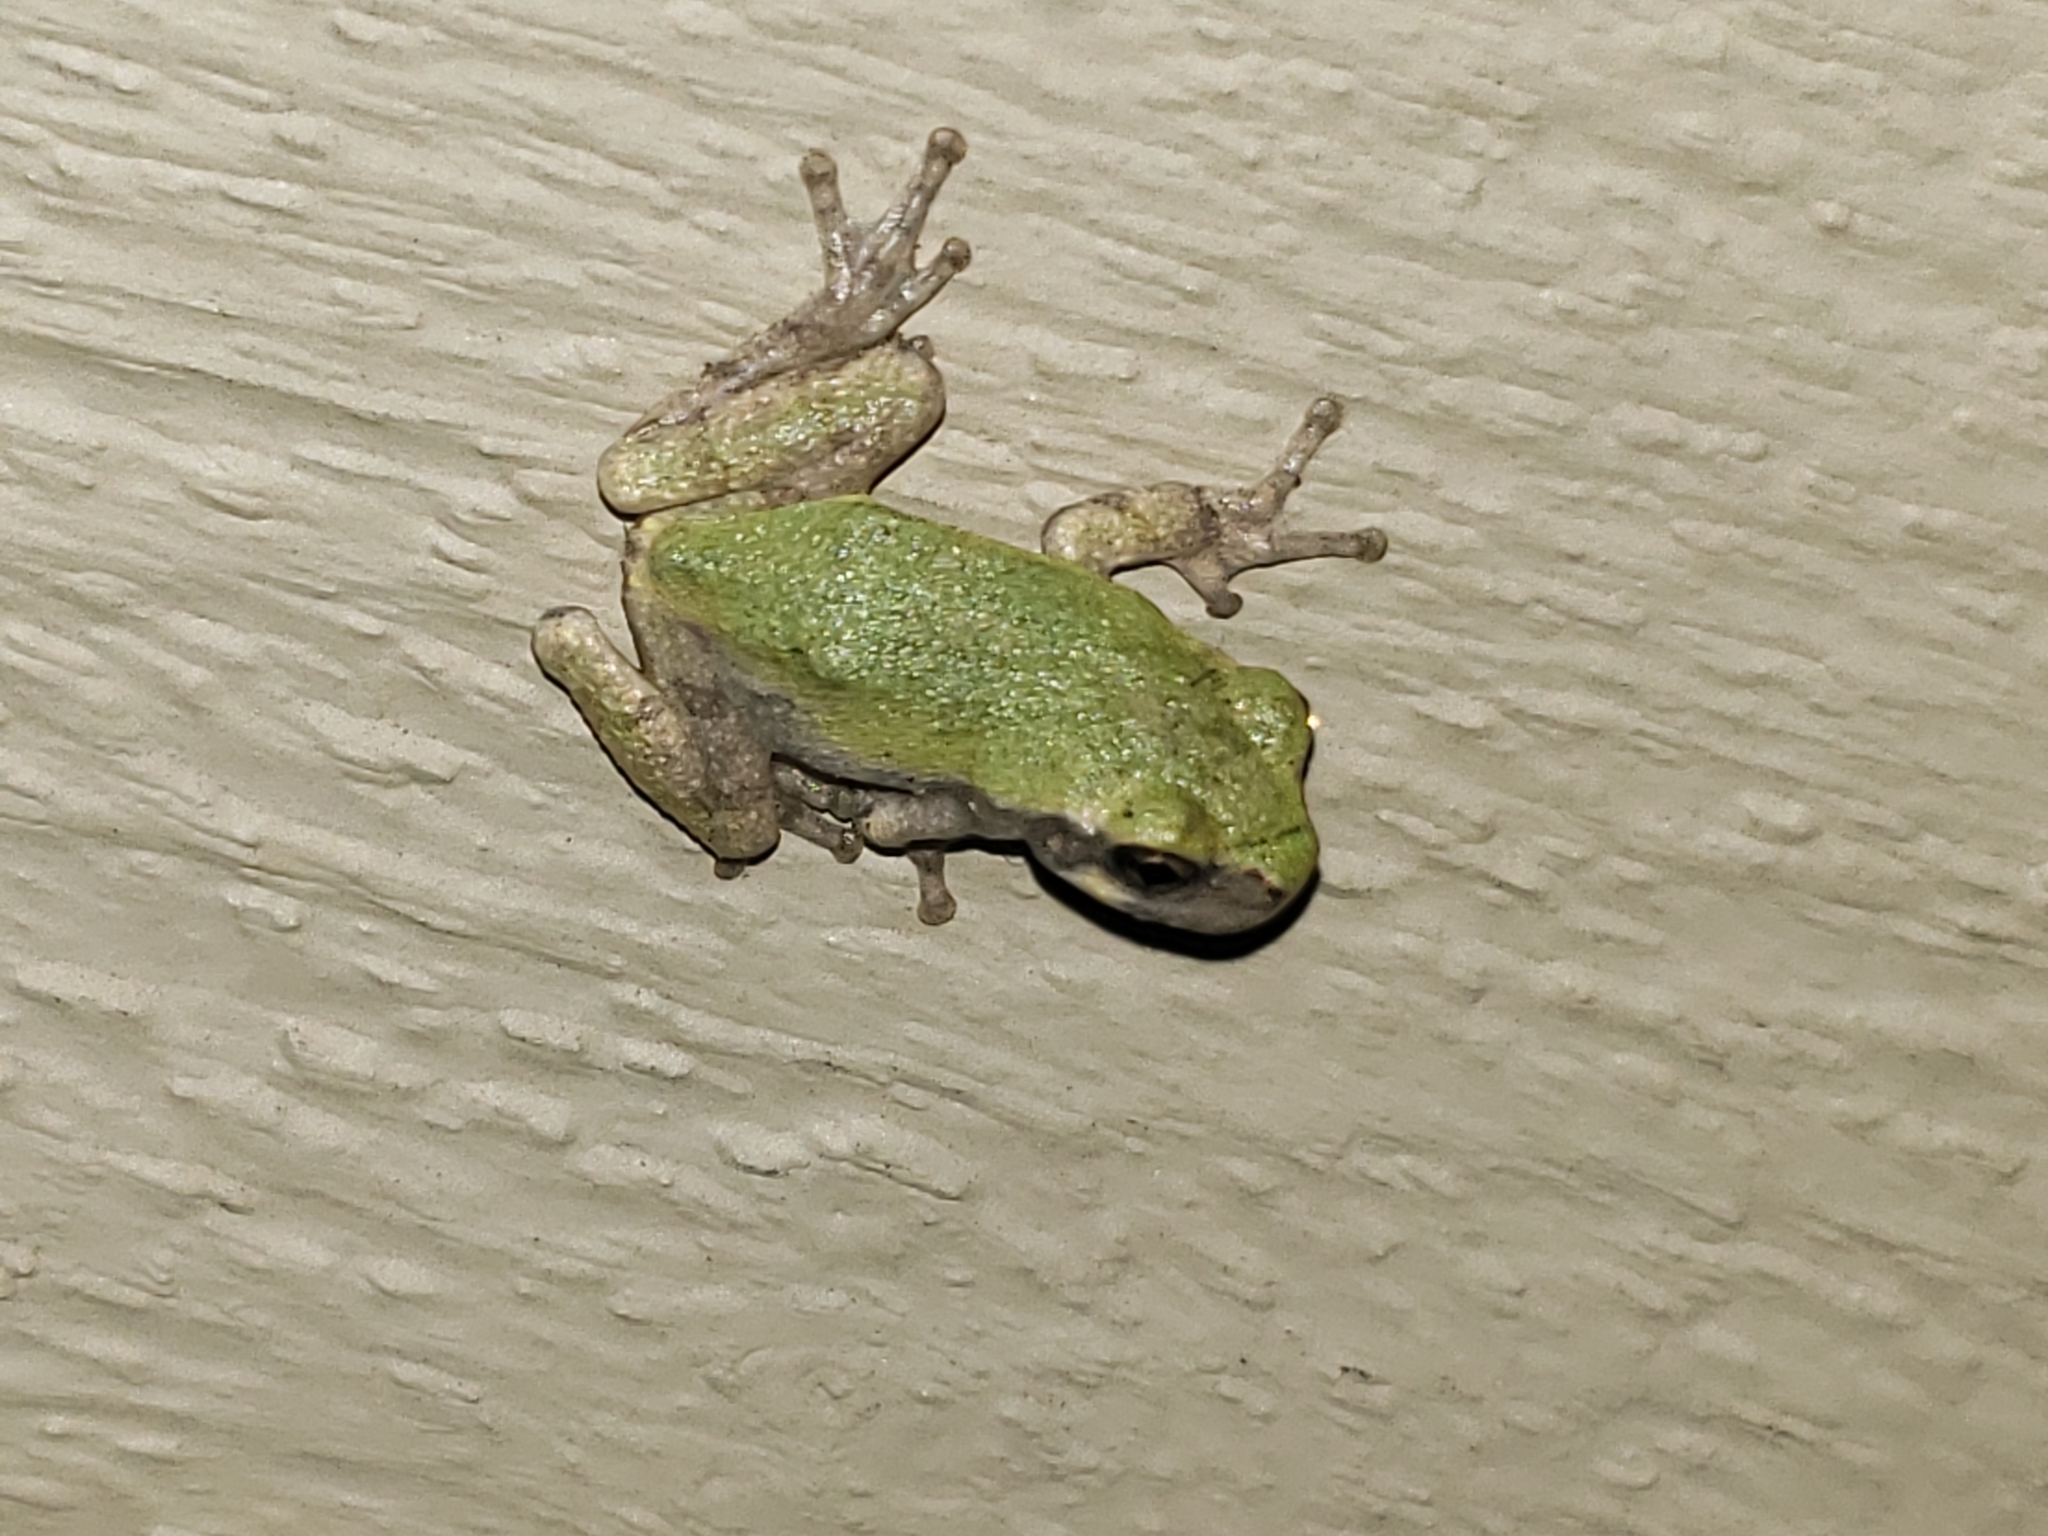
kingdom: Animalia
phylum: Chordata
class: Amphibia
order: Anura
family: Hylidae
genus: Hyla
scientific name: Hyla
